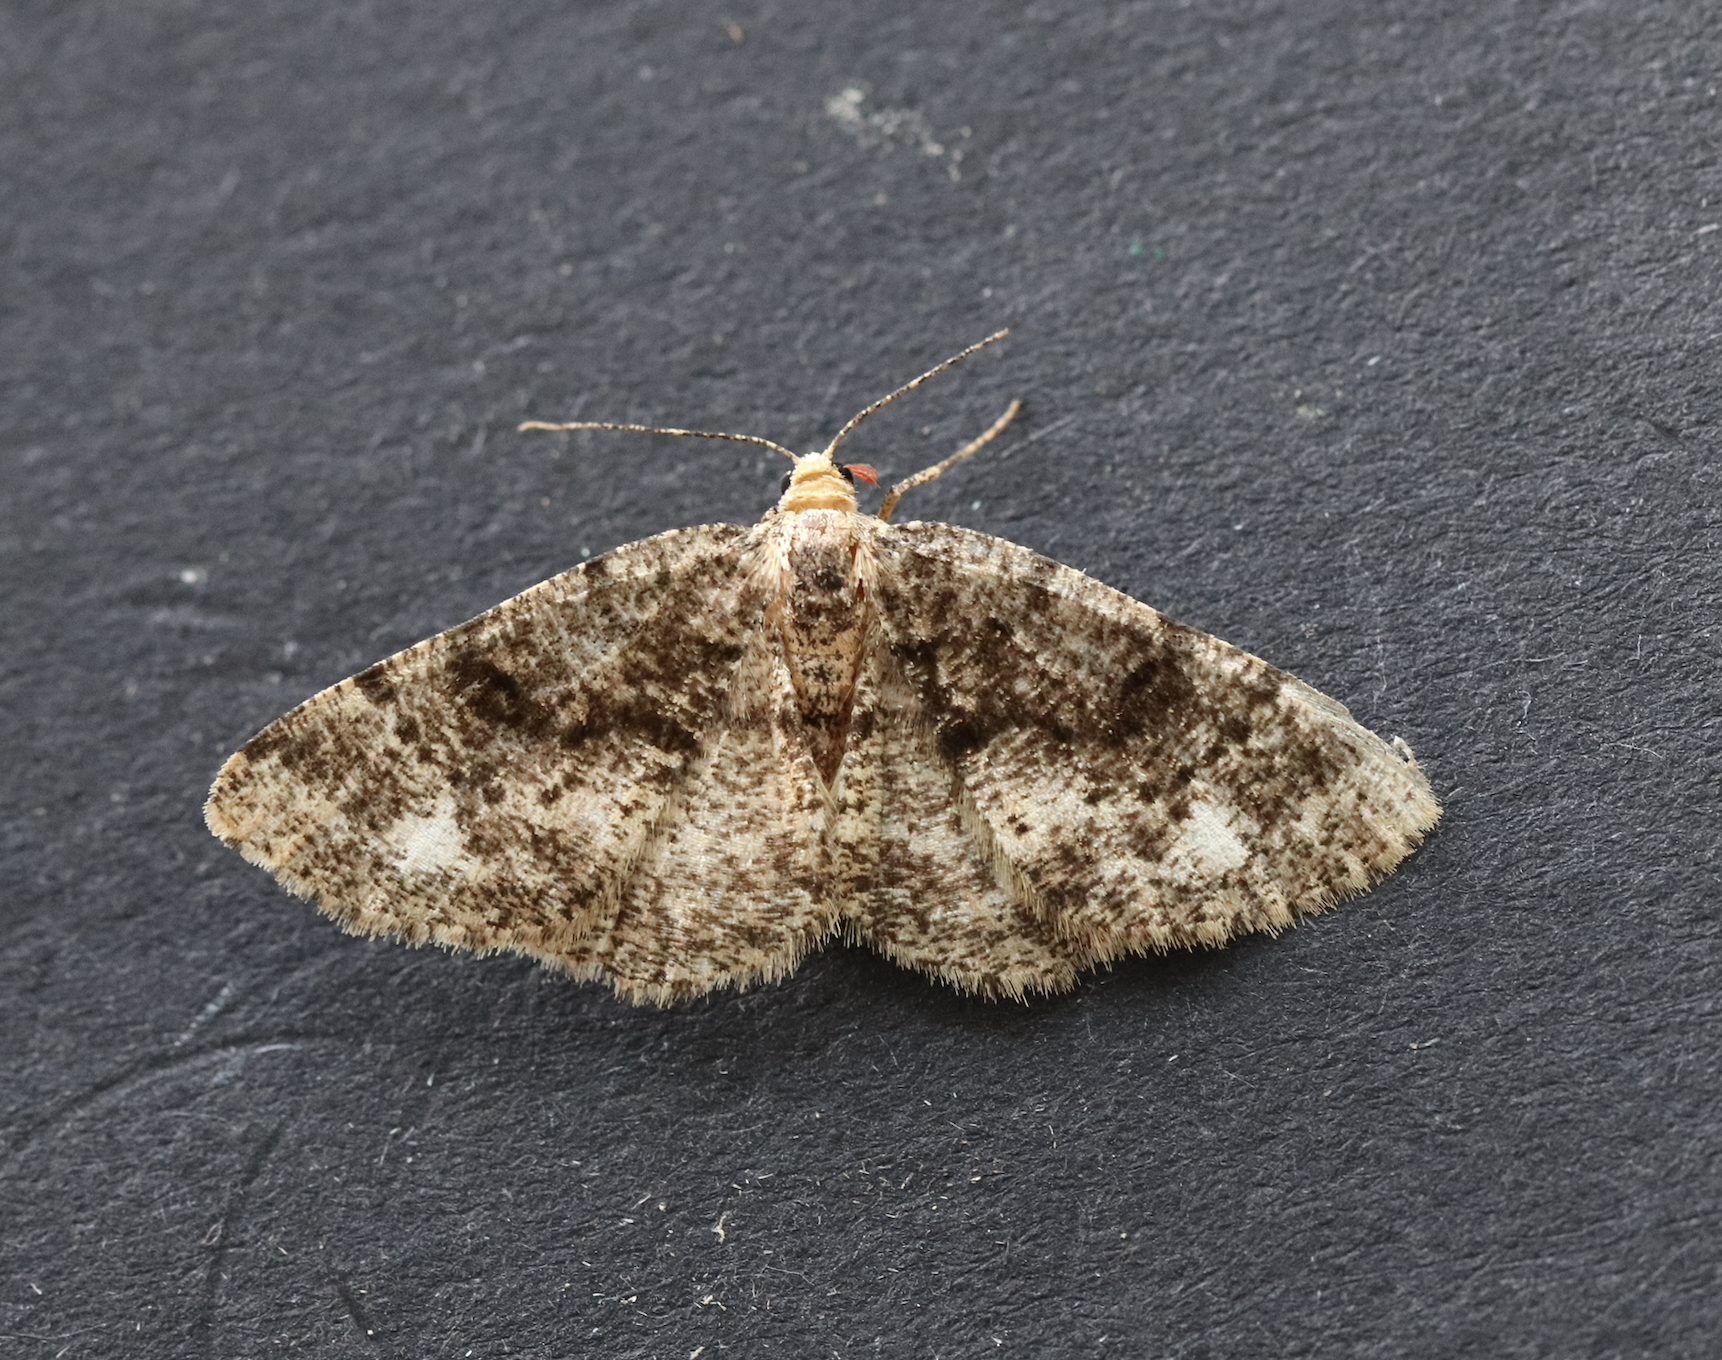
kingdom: Animalia
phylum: Arthropoda
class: Insecta
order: Lepidoptera
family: Geometridae
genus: Parectropis
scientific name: Parectropis similaria
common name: Brindled white-spot
